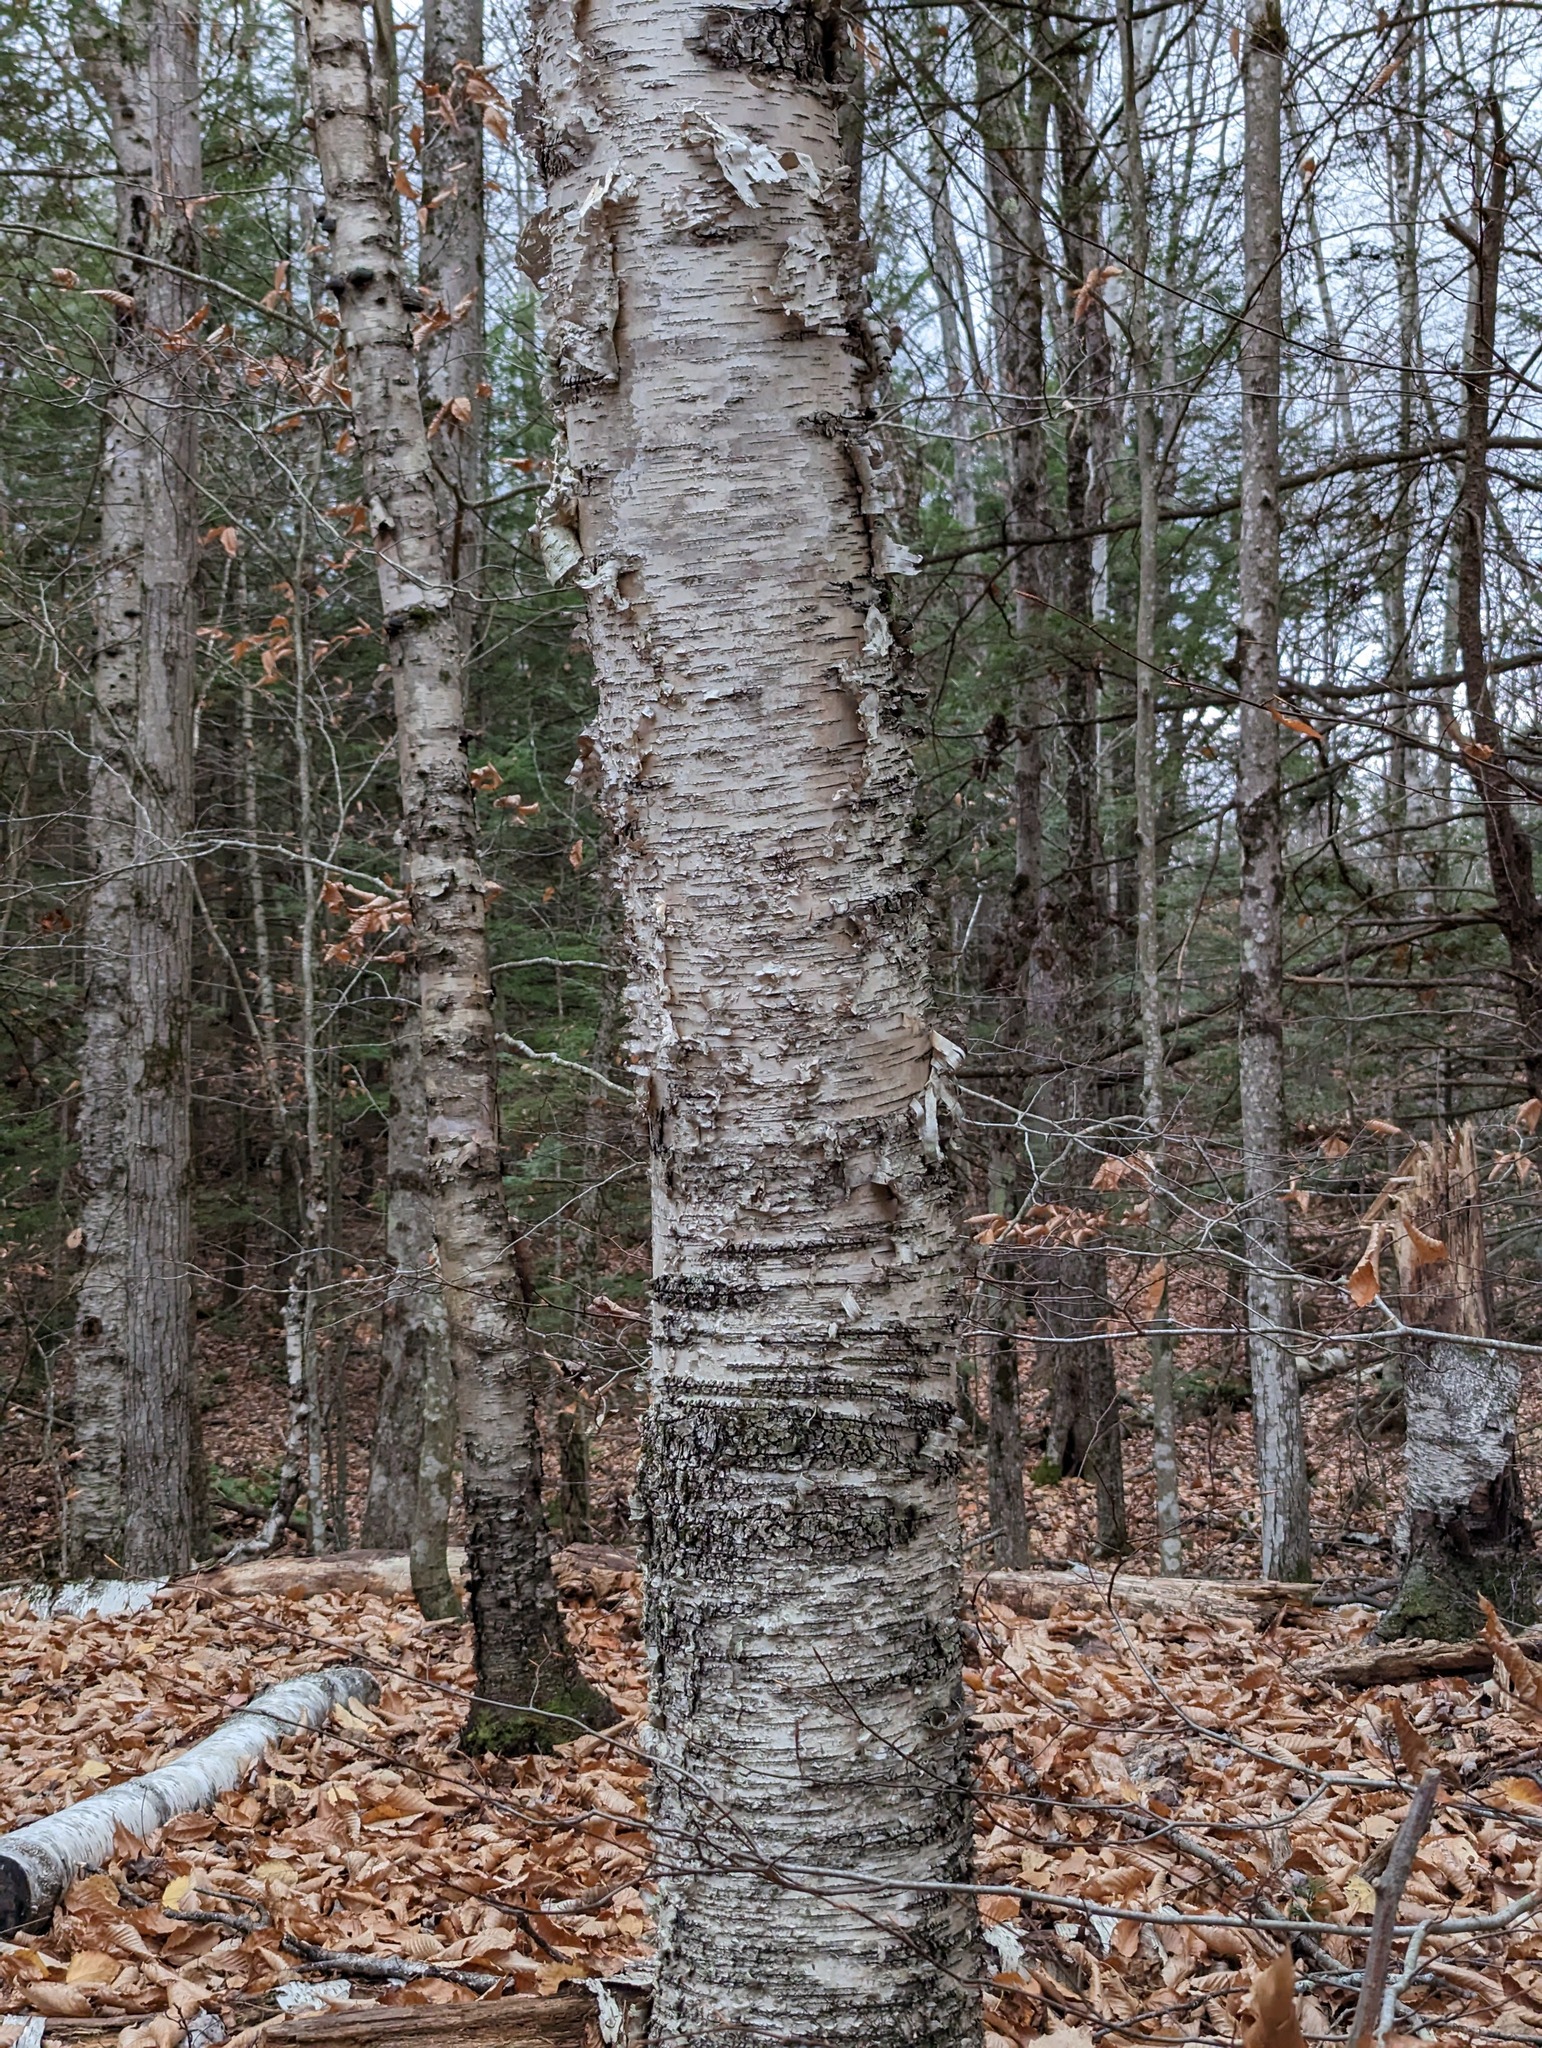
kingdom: Plantae
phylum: Tracheophyta
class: Magnoliopsida
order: Fagales
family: Betulaceae
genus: Betula
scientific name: Betula papyrifera
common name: Paper birch
